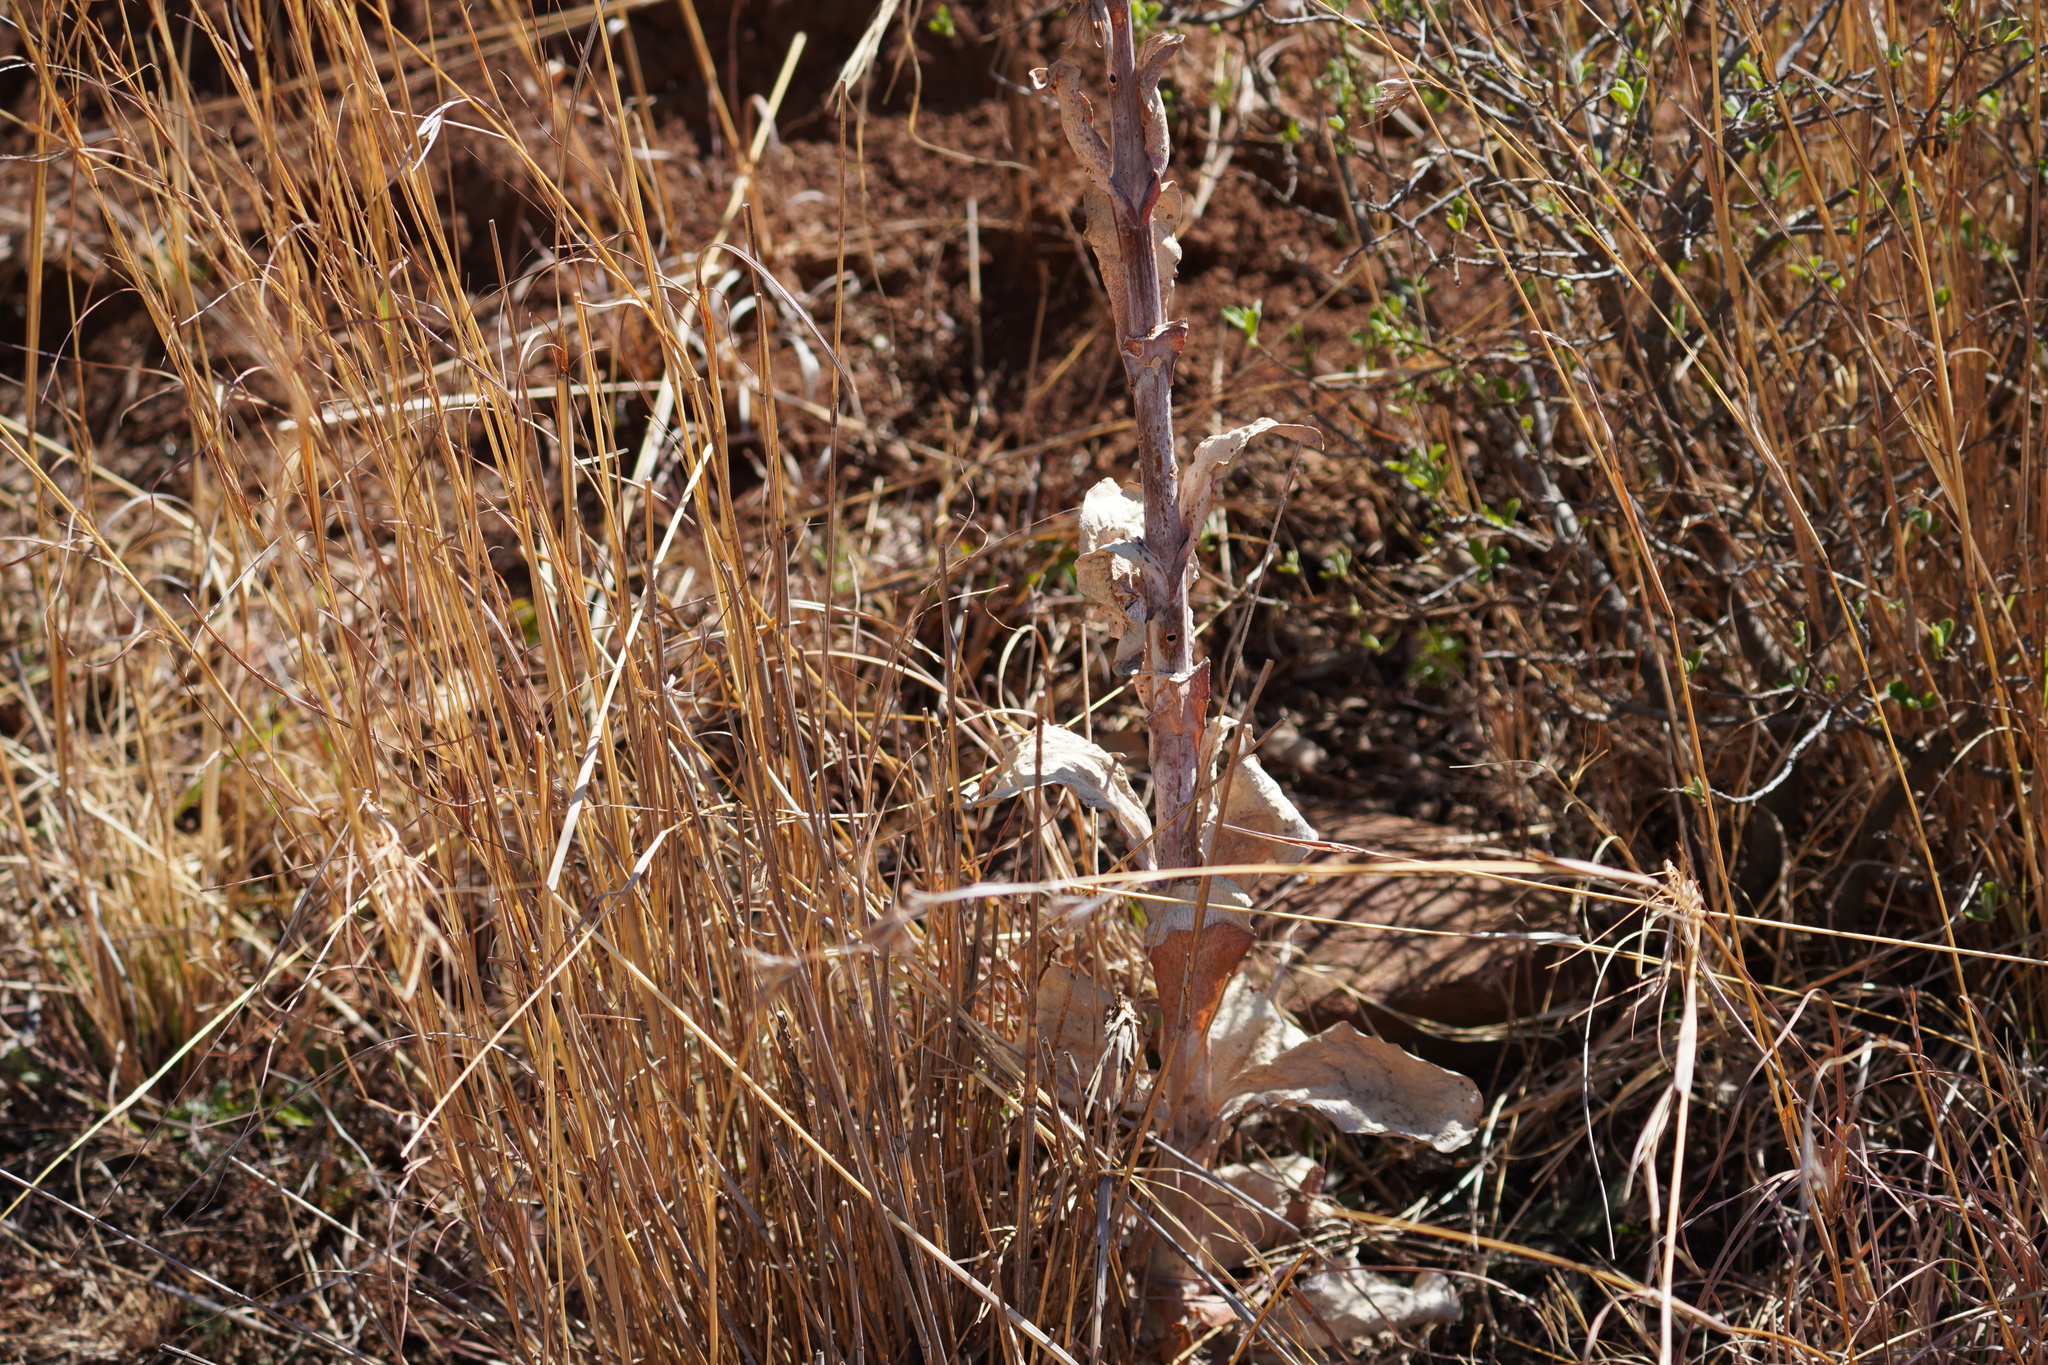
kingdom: Plantae
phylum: Tracheophyta
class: Magnoliopsida
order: Saxifragales
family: Crassulaceae
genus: Kalanchoe
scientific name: Kalanchoe thyrsiflora
